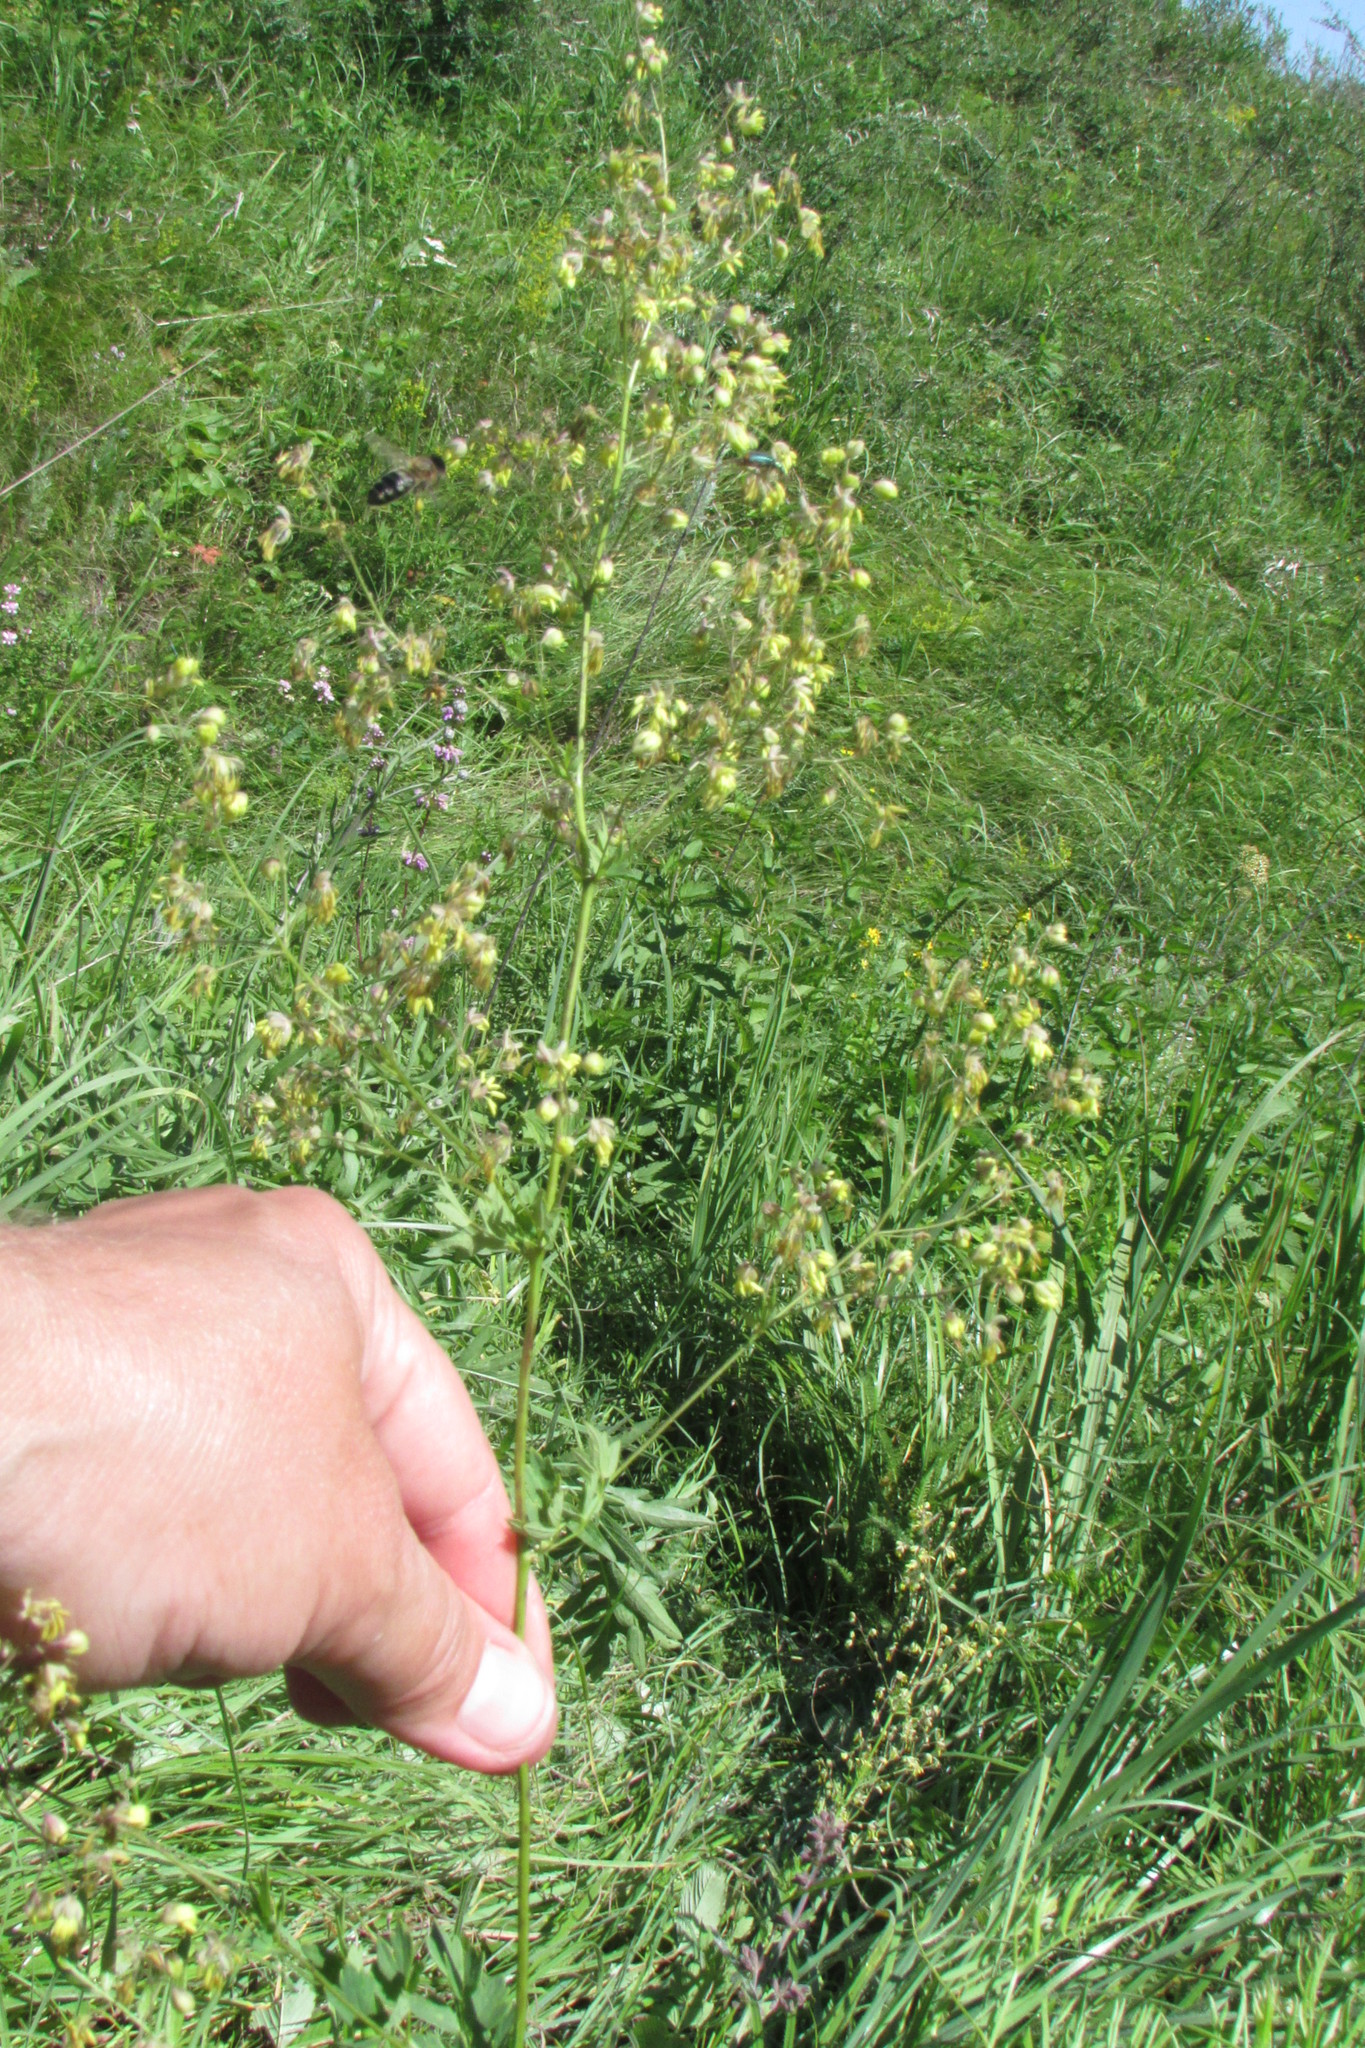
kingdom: Plantae
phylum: Tracheophyta
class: Magnoliopsida
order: Ranunculales
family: Ranunculaceae
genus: Thalictrum
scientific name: Thalictrum minus
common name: Lesser meadow-rue
